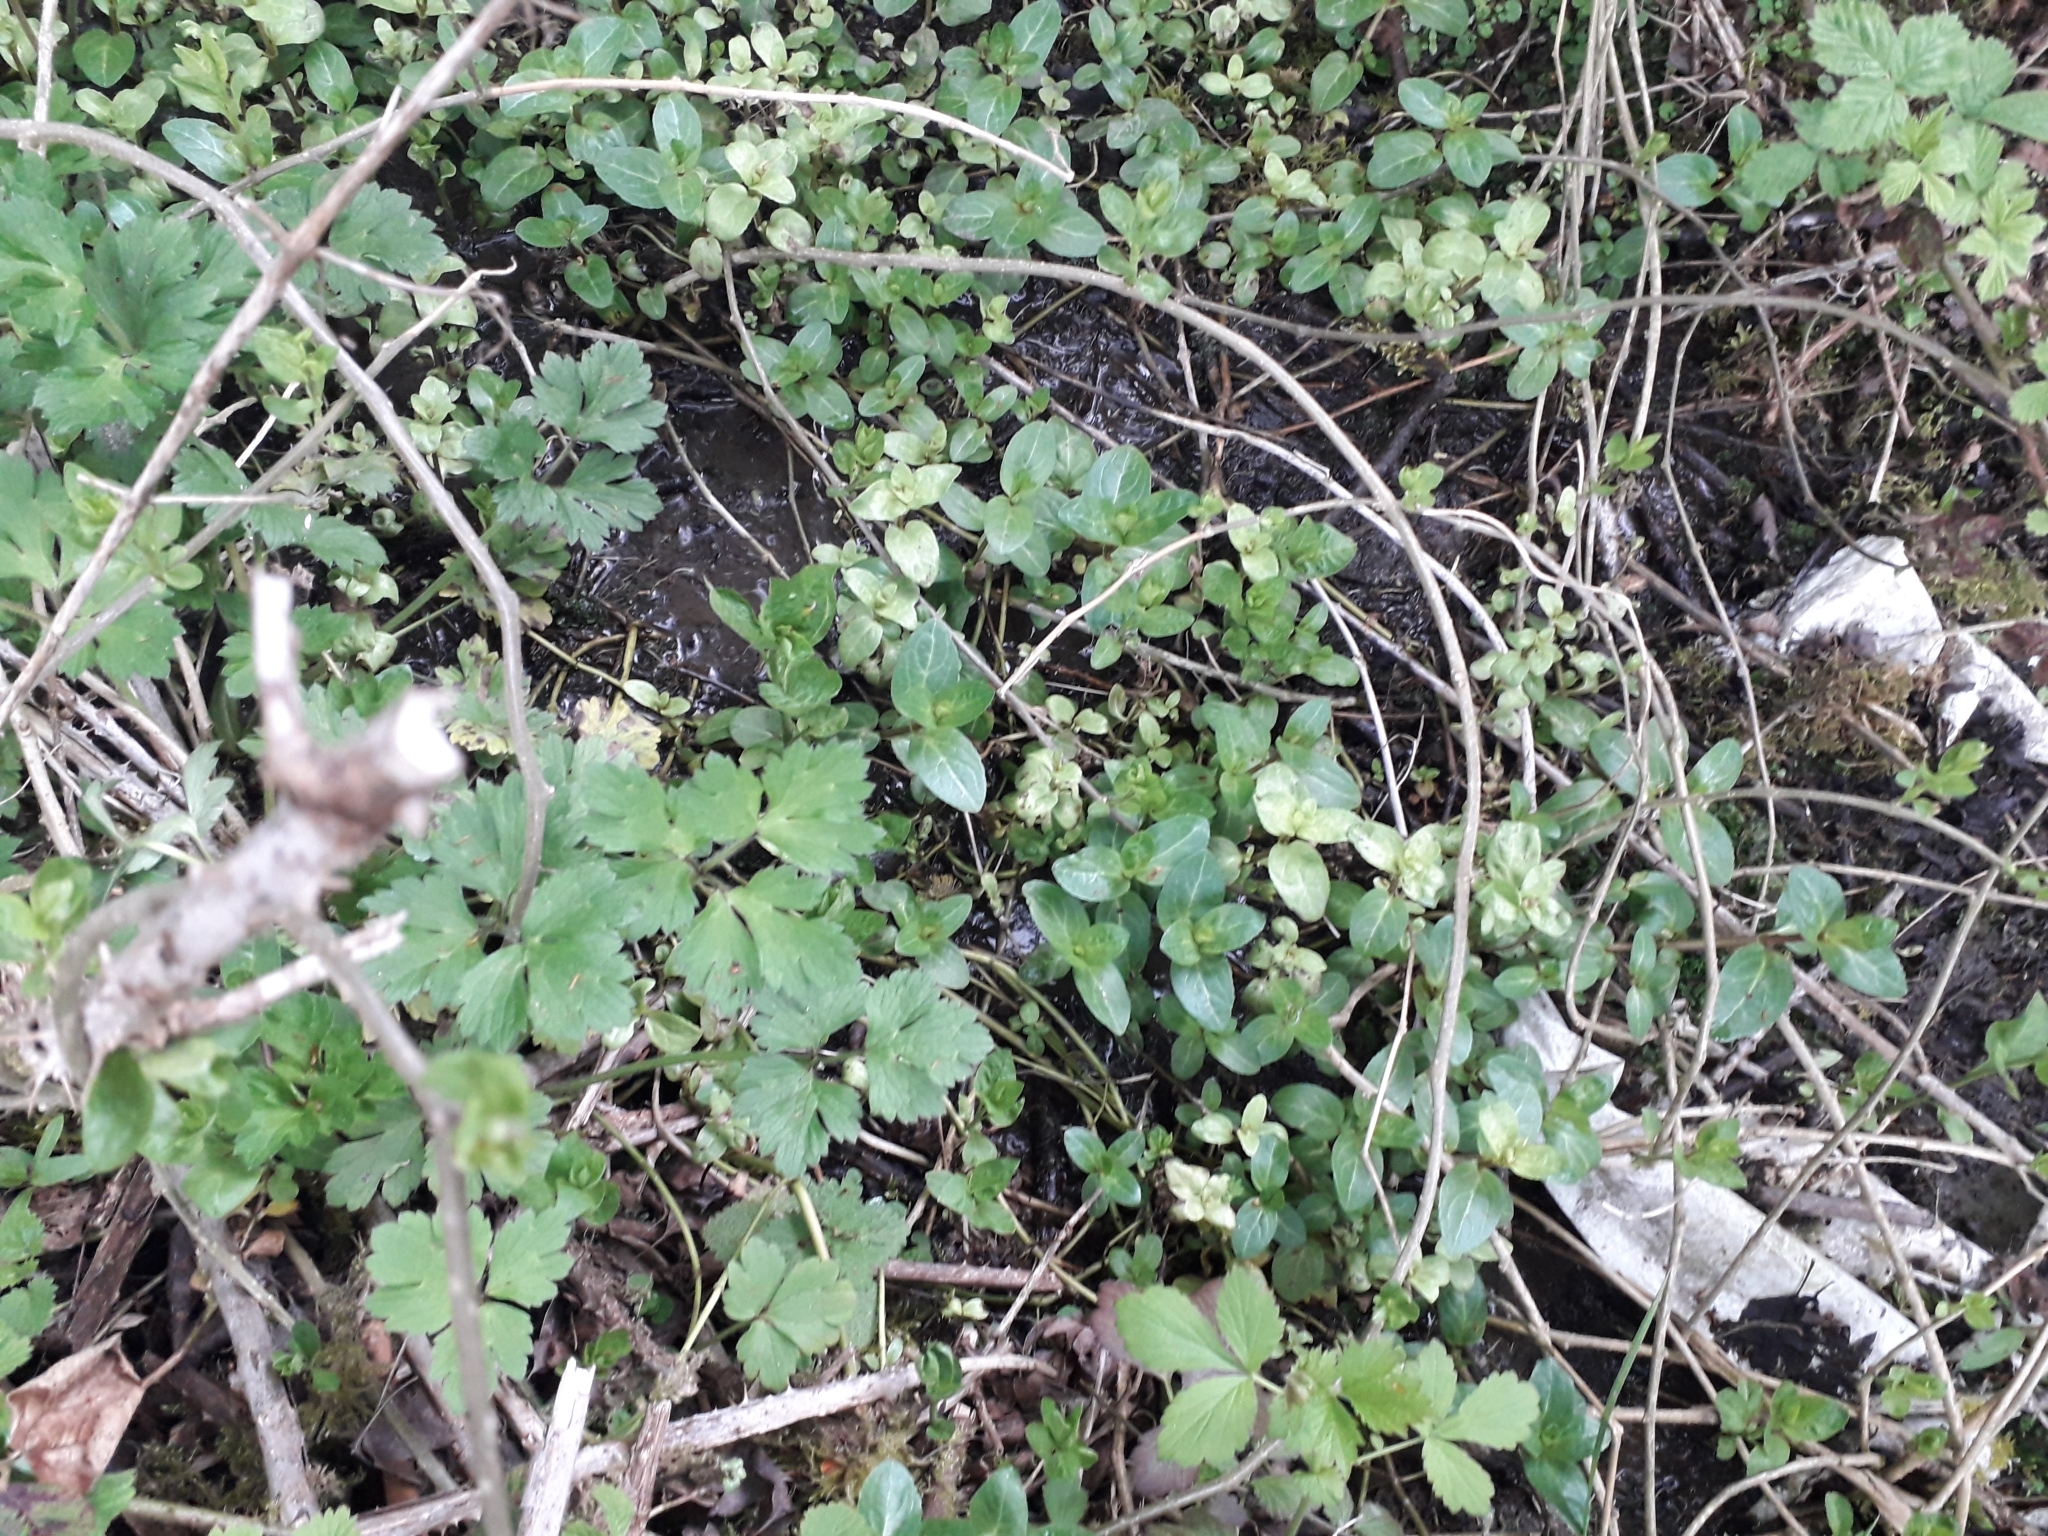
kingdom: Plantae
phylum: Tracheophyta
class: Magnoliopsida
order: Lamiales
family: Plantaginaceae
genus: Veronica
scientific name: Veronica beccabunga
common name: Brooklime
